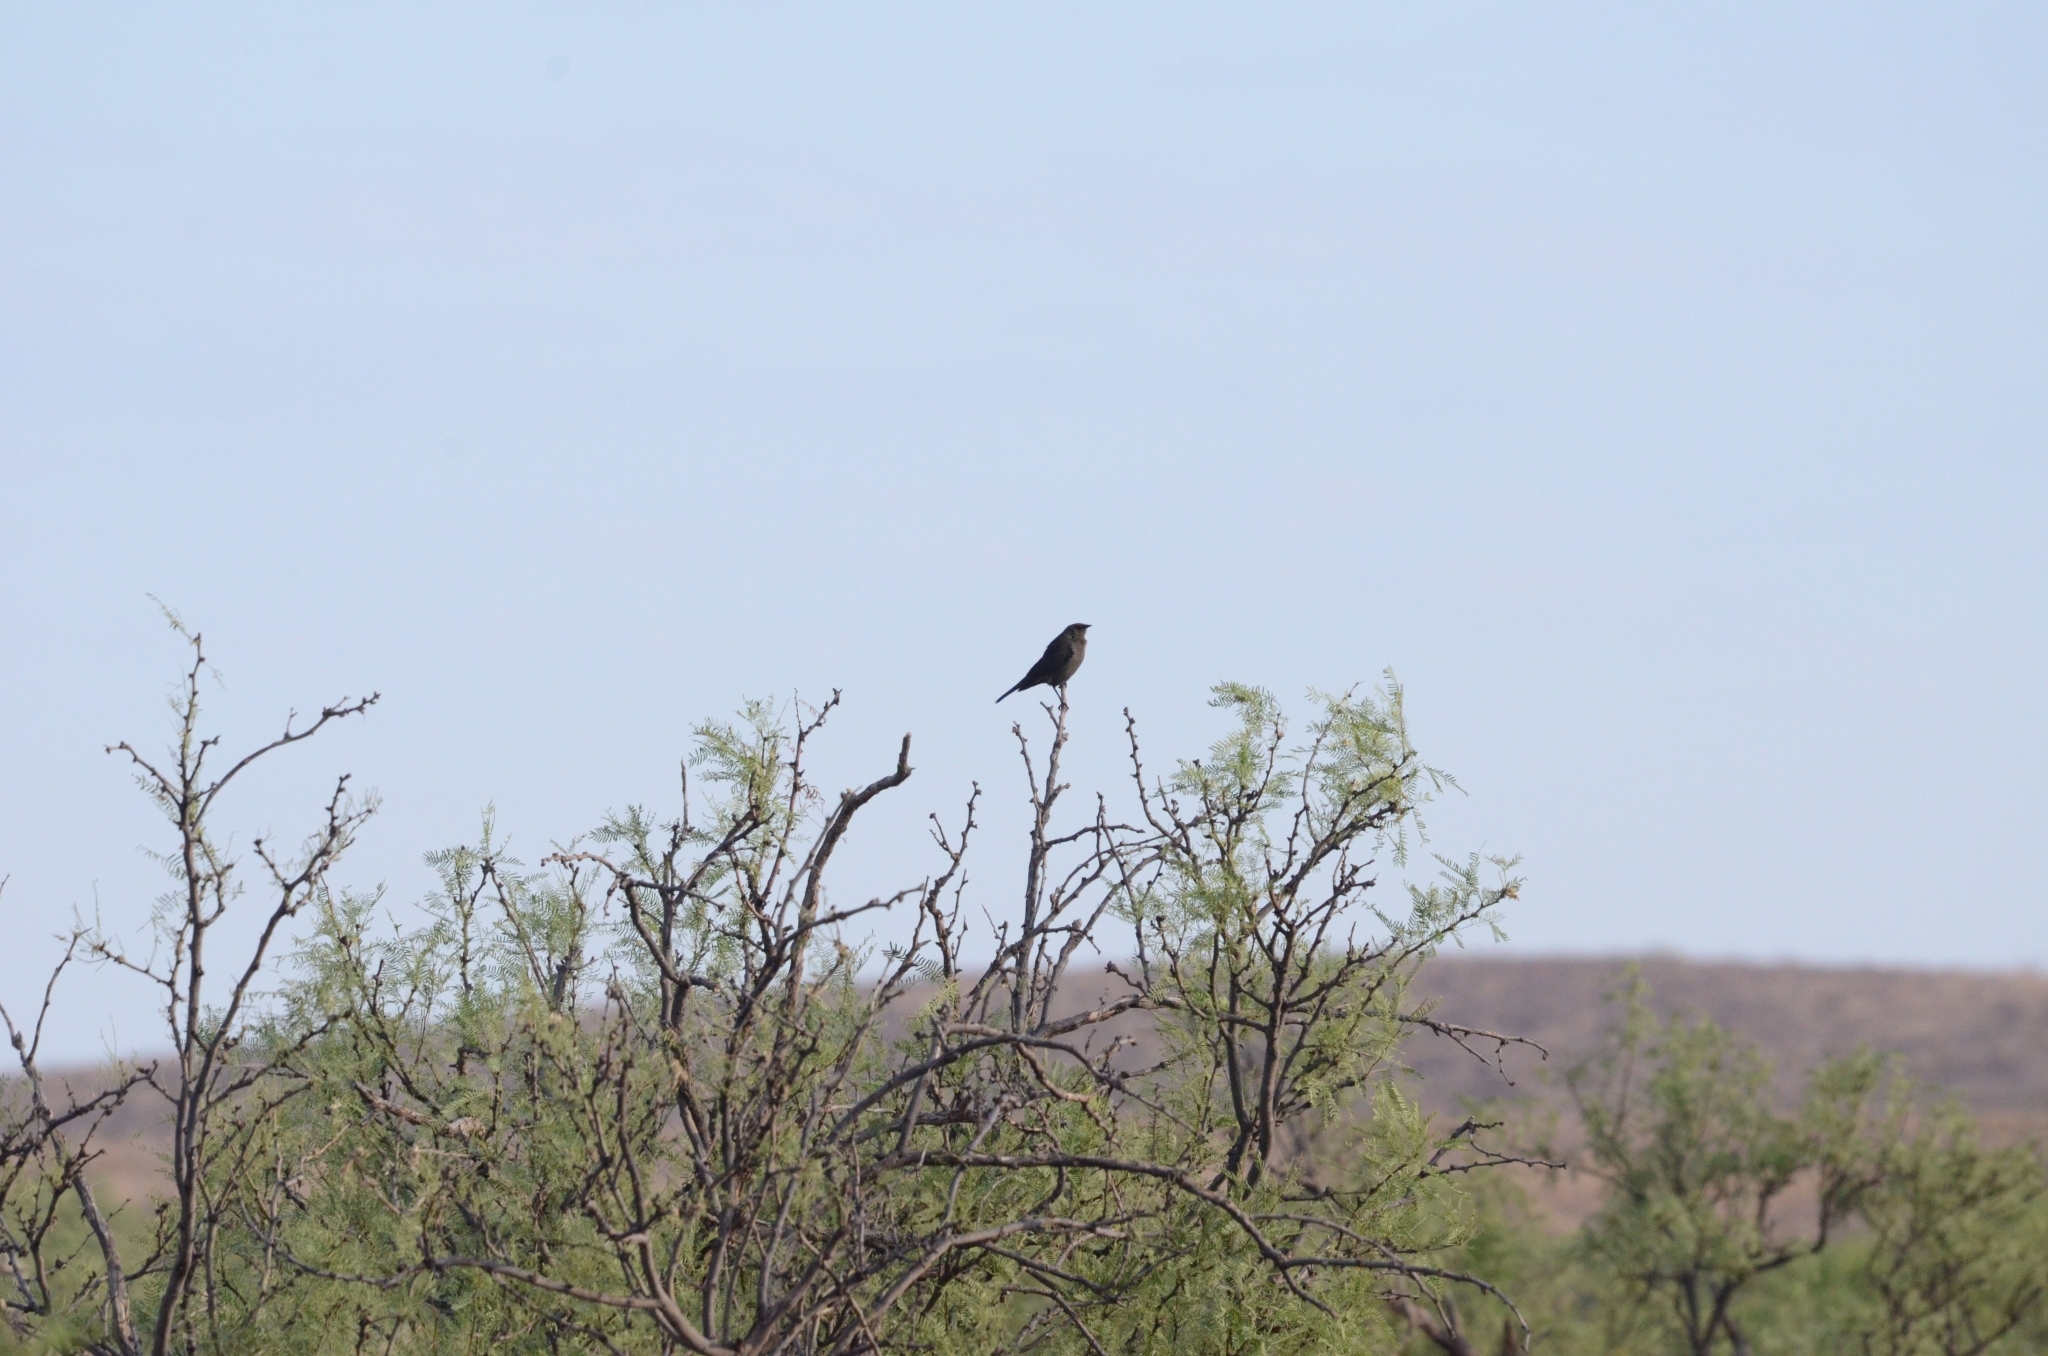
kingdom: Animalia
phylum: Chordata
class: Aves
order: Passeriformes
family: Icteridae
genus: Euphagus
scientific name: Euphagus cyanocephalus
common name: Brewer's blackbird
